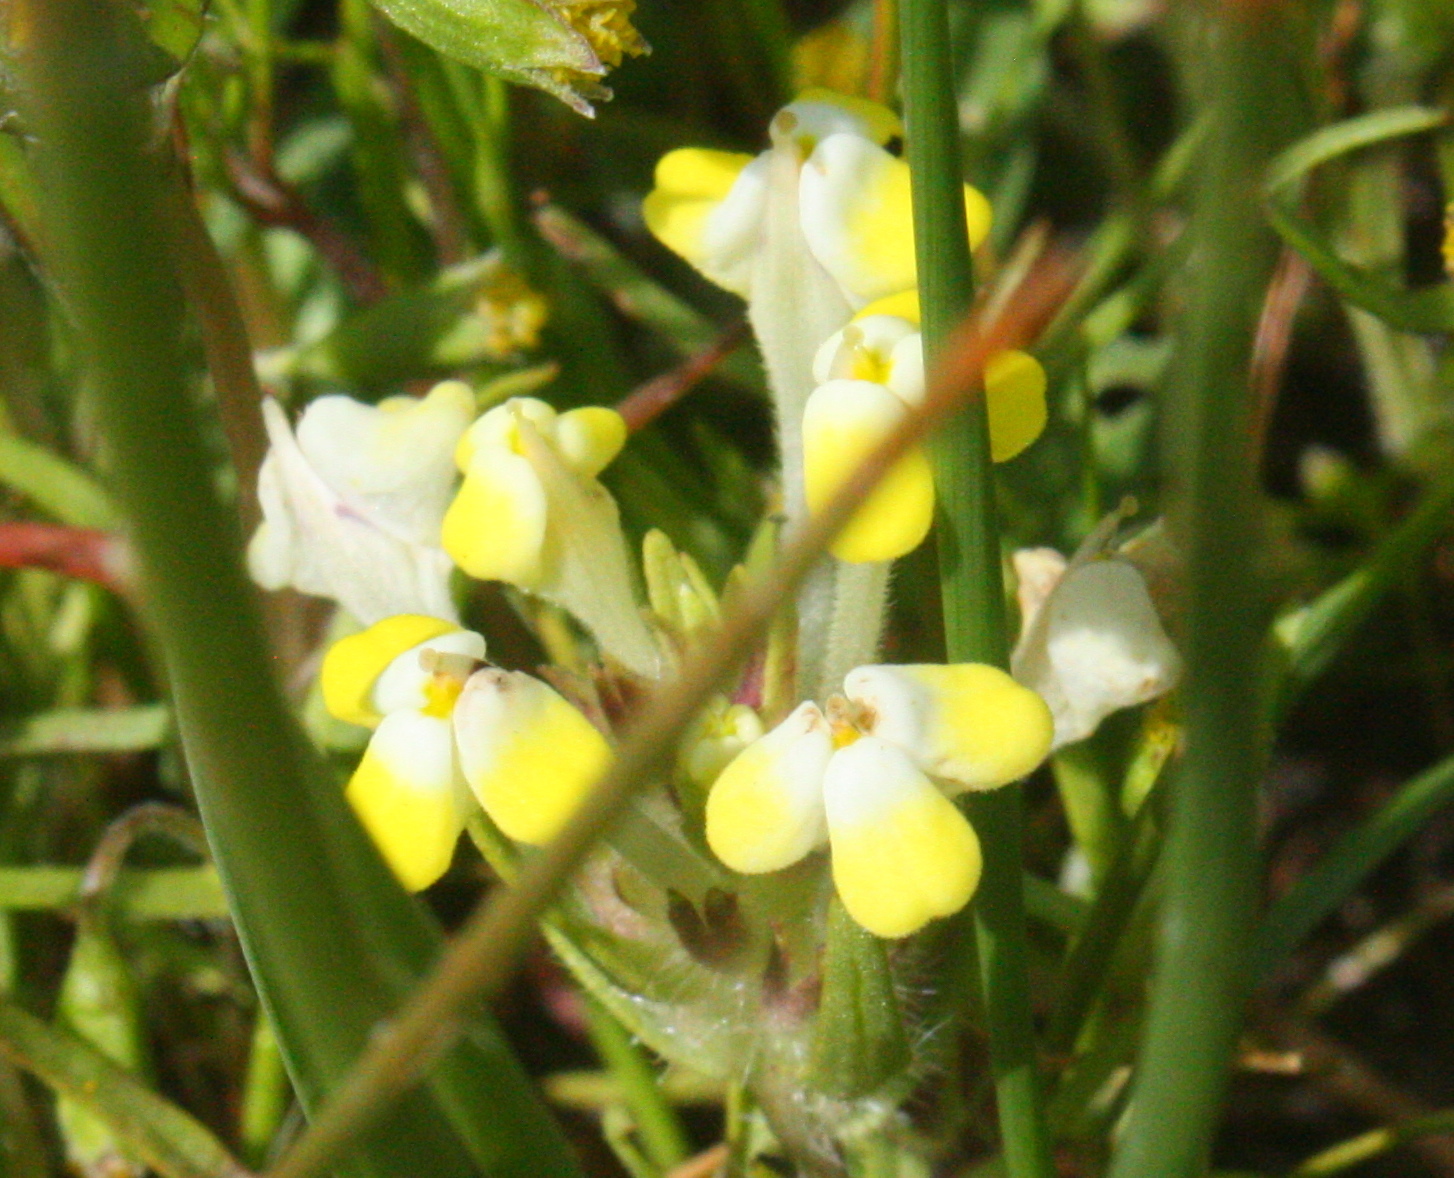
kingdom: Plantae
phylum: Tracheophyta
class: Magnoliopsida
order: Lamiales
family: Orobanchaceae
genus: Castilleja
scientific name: Castilleja campestris
